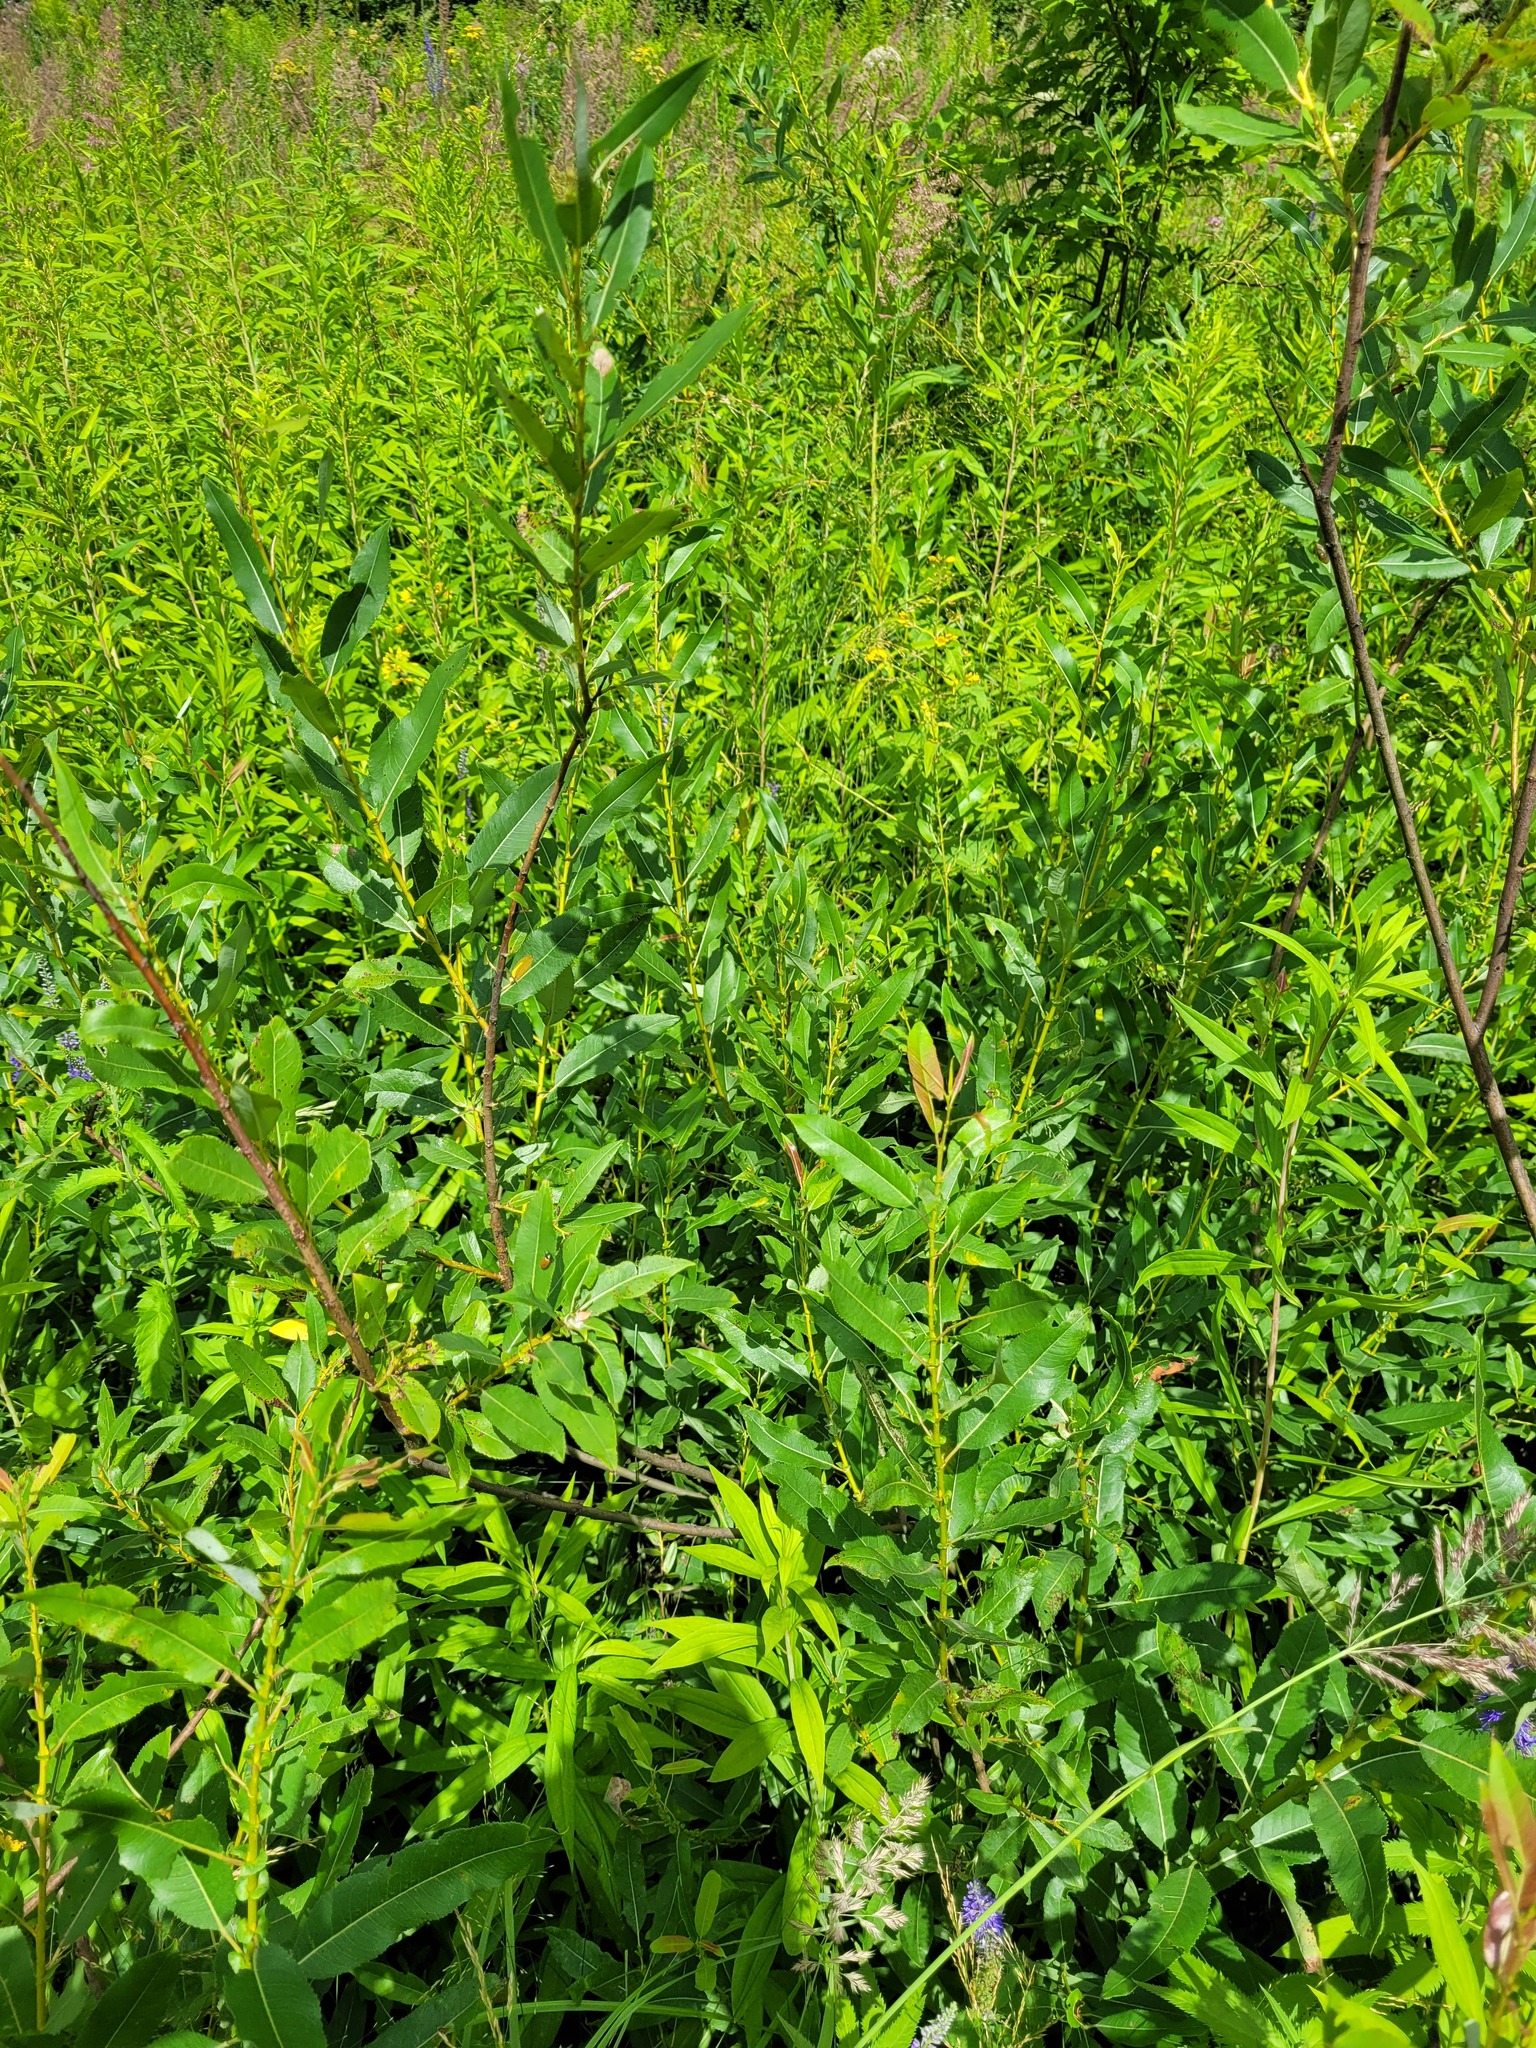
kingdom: Plantae
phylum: Tracheophyta
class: Magnoliopsida
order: Malpighiales
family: Salicaceae
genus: Salix
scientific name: Salix triandra
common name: Almond willow
